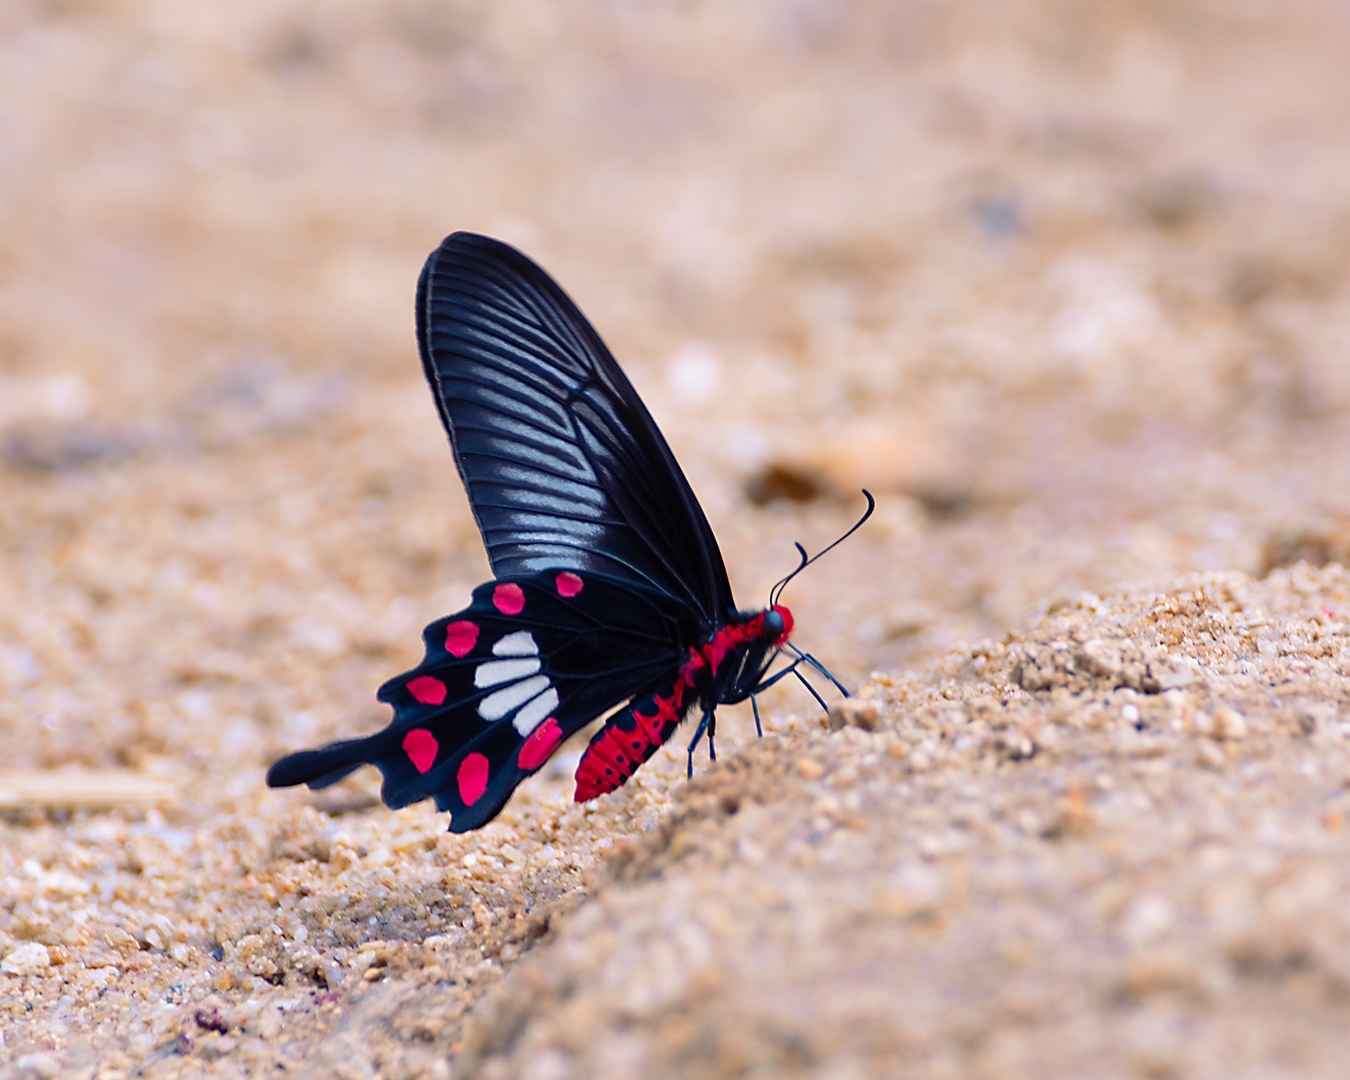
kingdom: Animalia
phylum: Arthropoda
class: Insecta
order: Lepidoptera
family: Papilionidae
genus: Pachliopta
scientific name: Pachliopta aristolochiae
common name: Common rose
